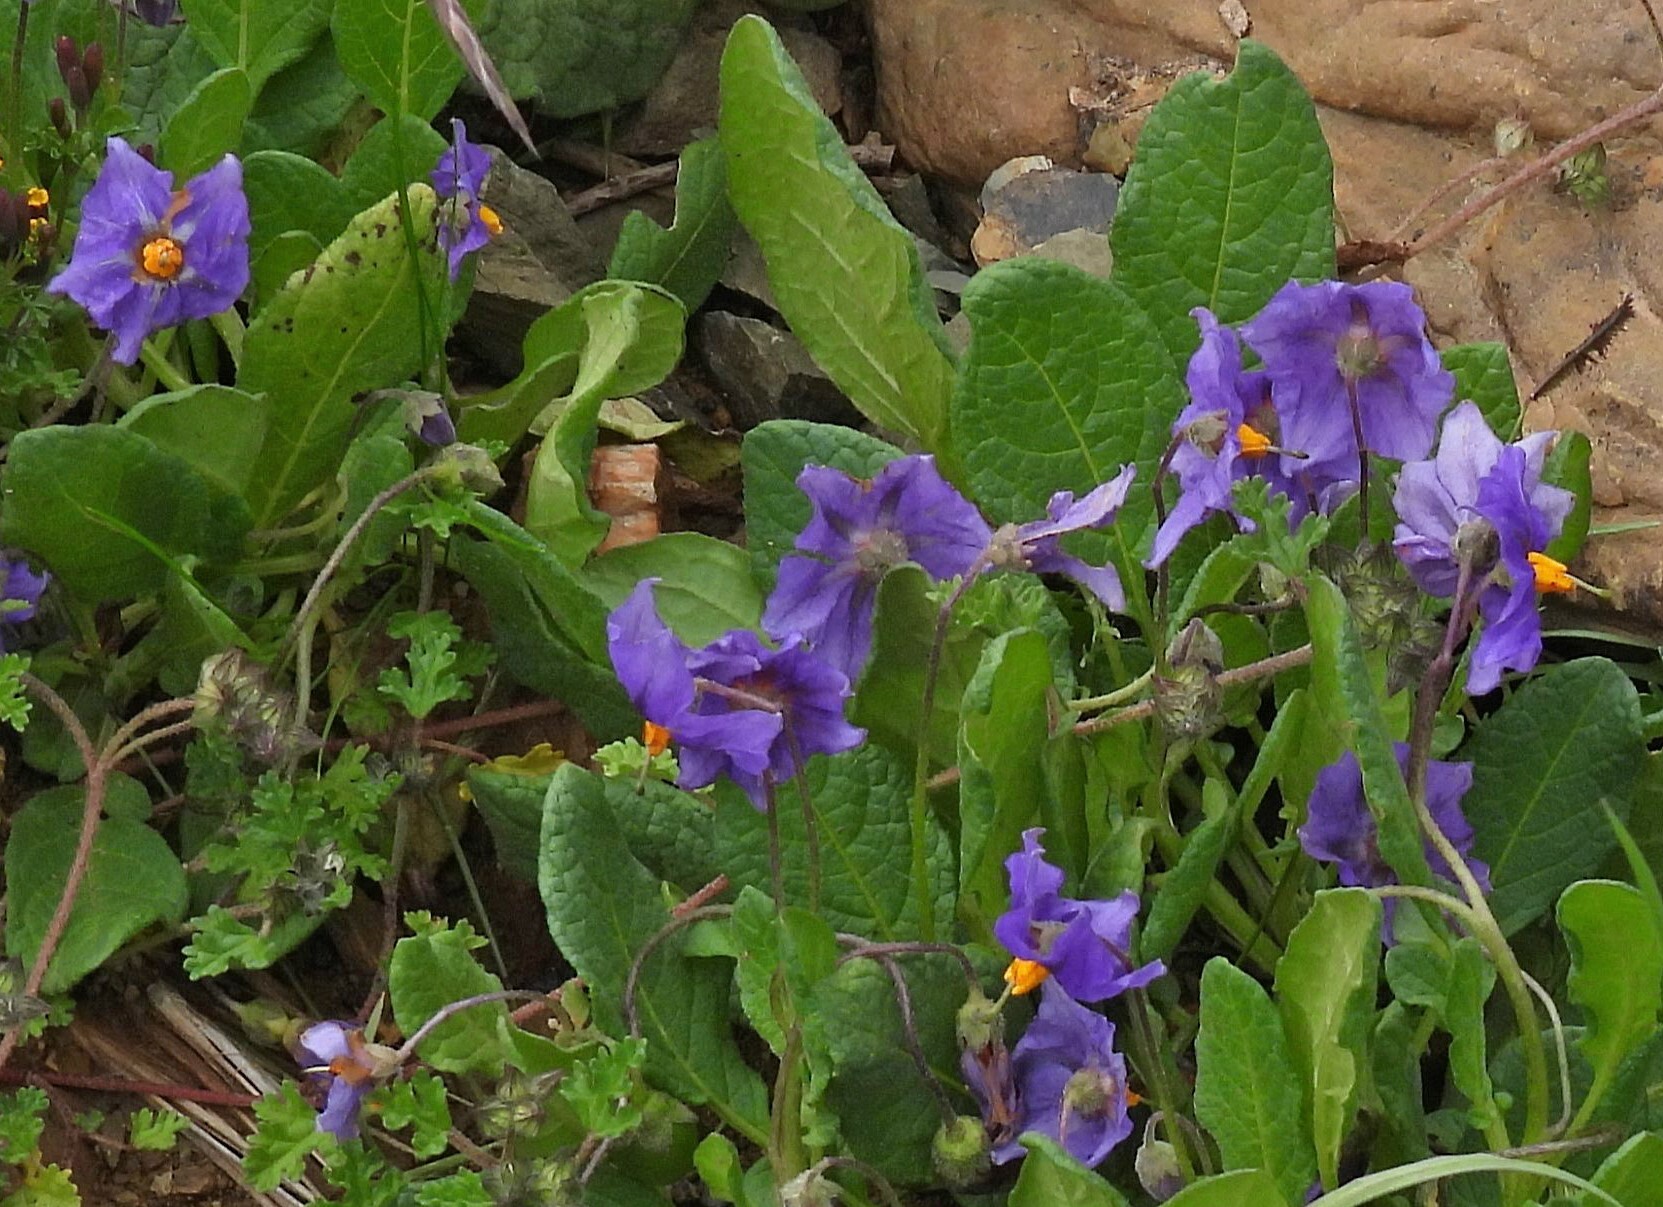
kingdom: Plantae
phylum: Tracheophyta
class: Magnoliopsida
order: Solanales
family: Solanaceae
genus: Solanum
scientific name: Solanum boliviense
